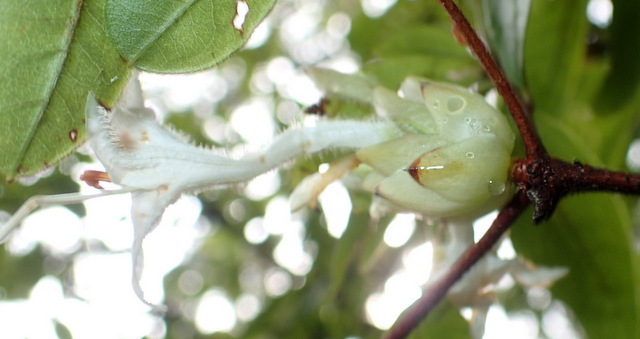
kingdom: Plantae
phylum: Tracheophyta
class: Magnoliopsida
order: Ericales
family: Ericaceae
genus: Rhododendron
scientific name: Rhododendron serrulatum
